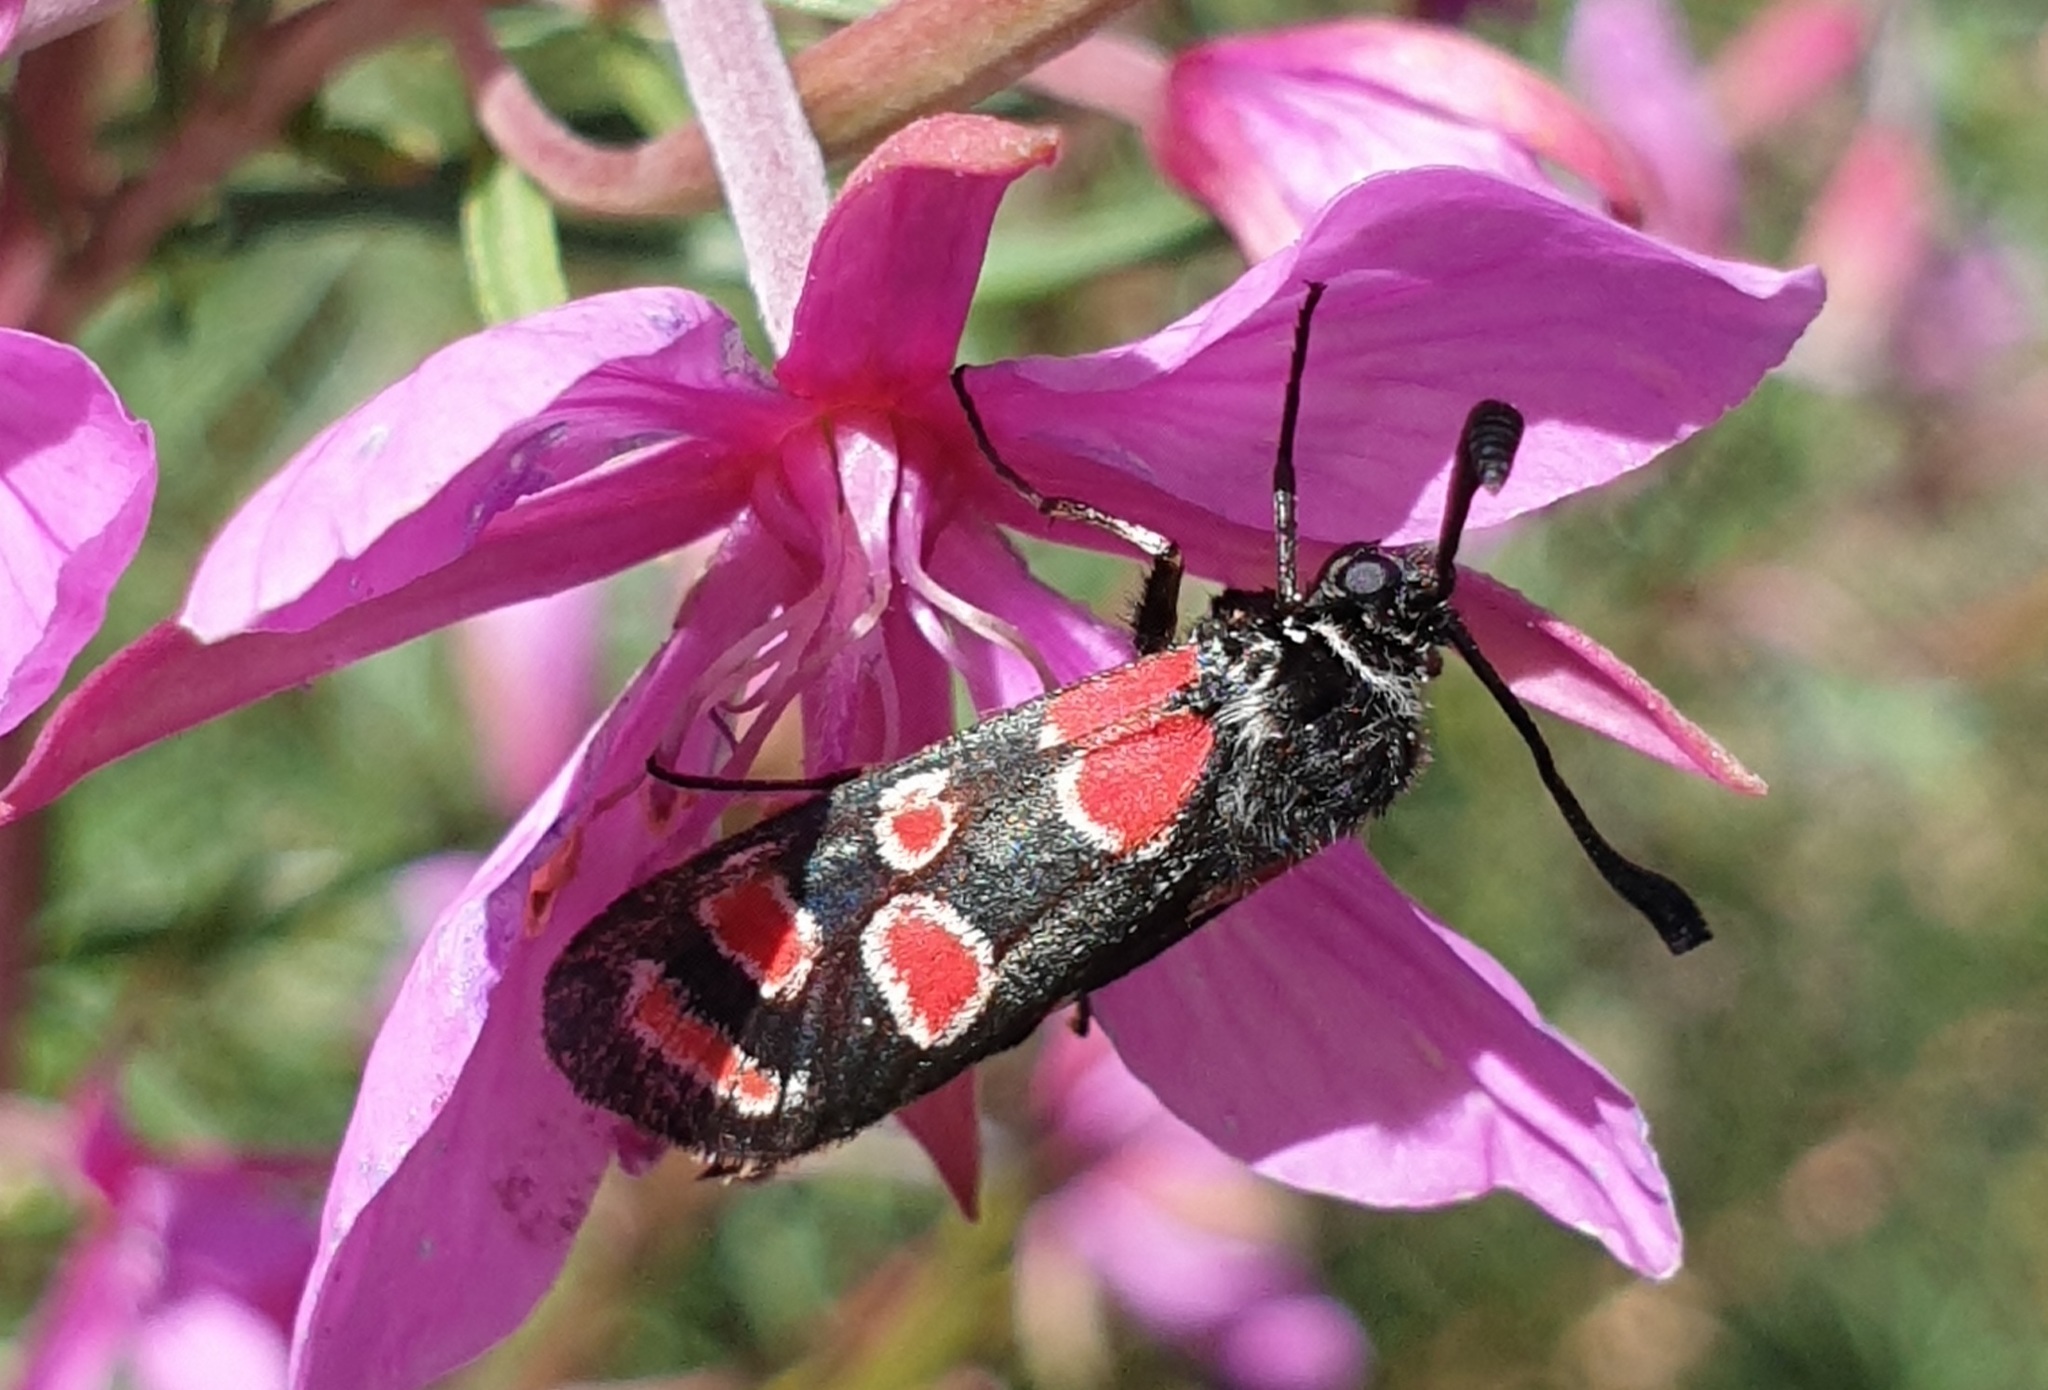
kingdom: Animalia
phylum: Arthropoda
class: Insecta
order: Lepidoptera
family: Zygaenidae
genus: Zygaena
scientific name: Zygaena carniolica
